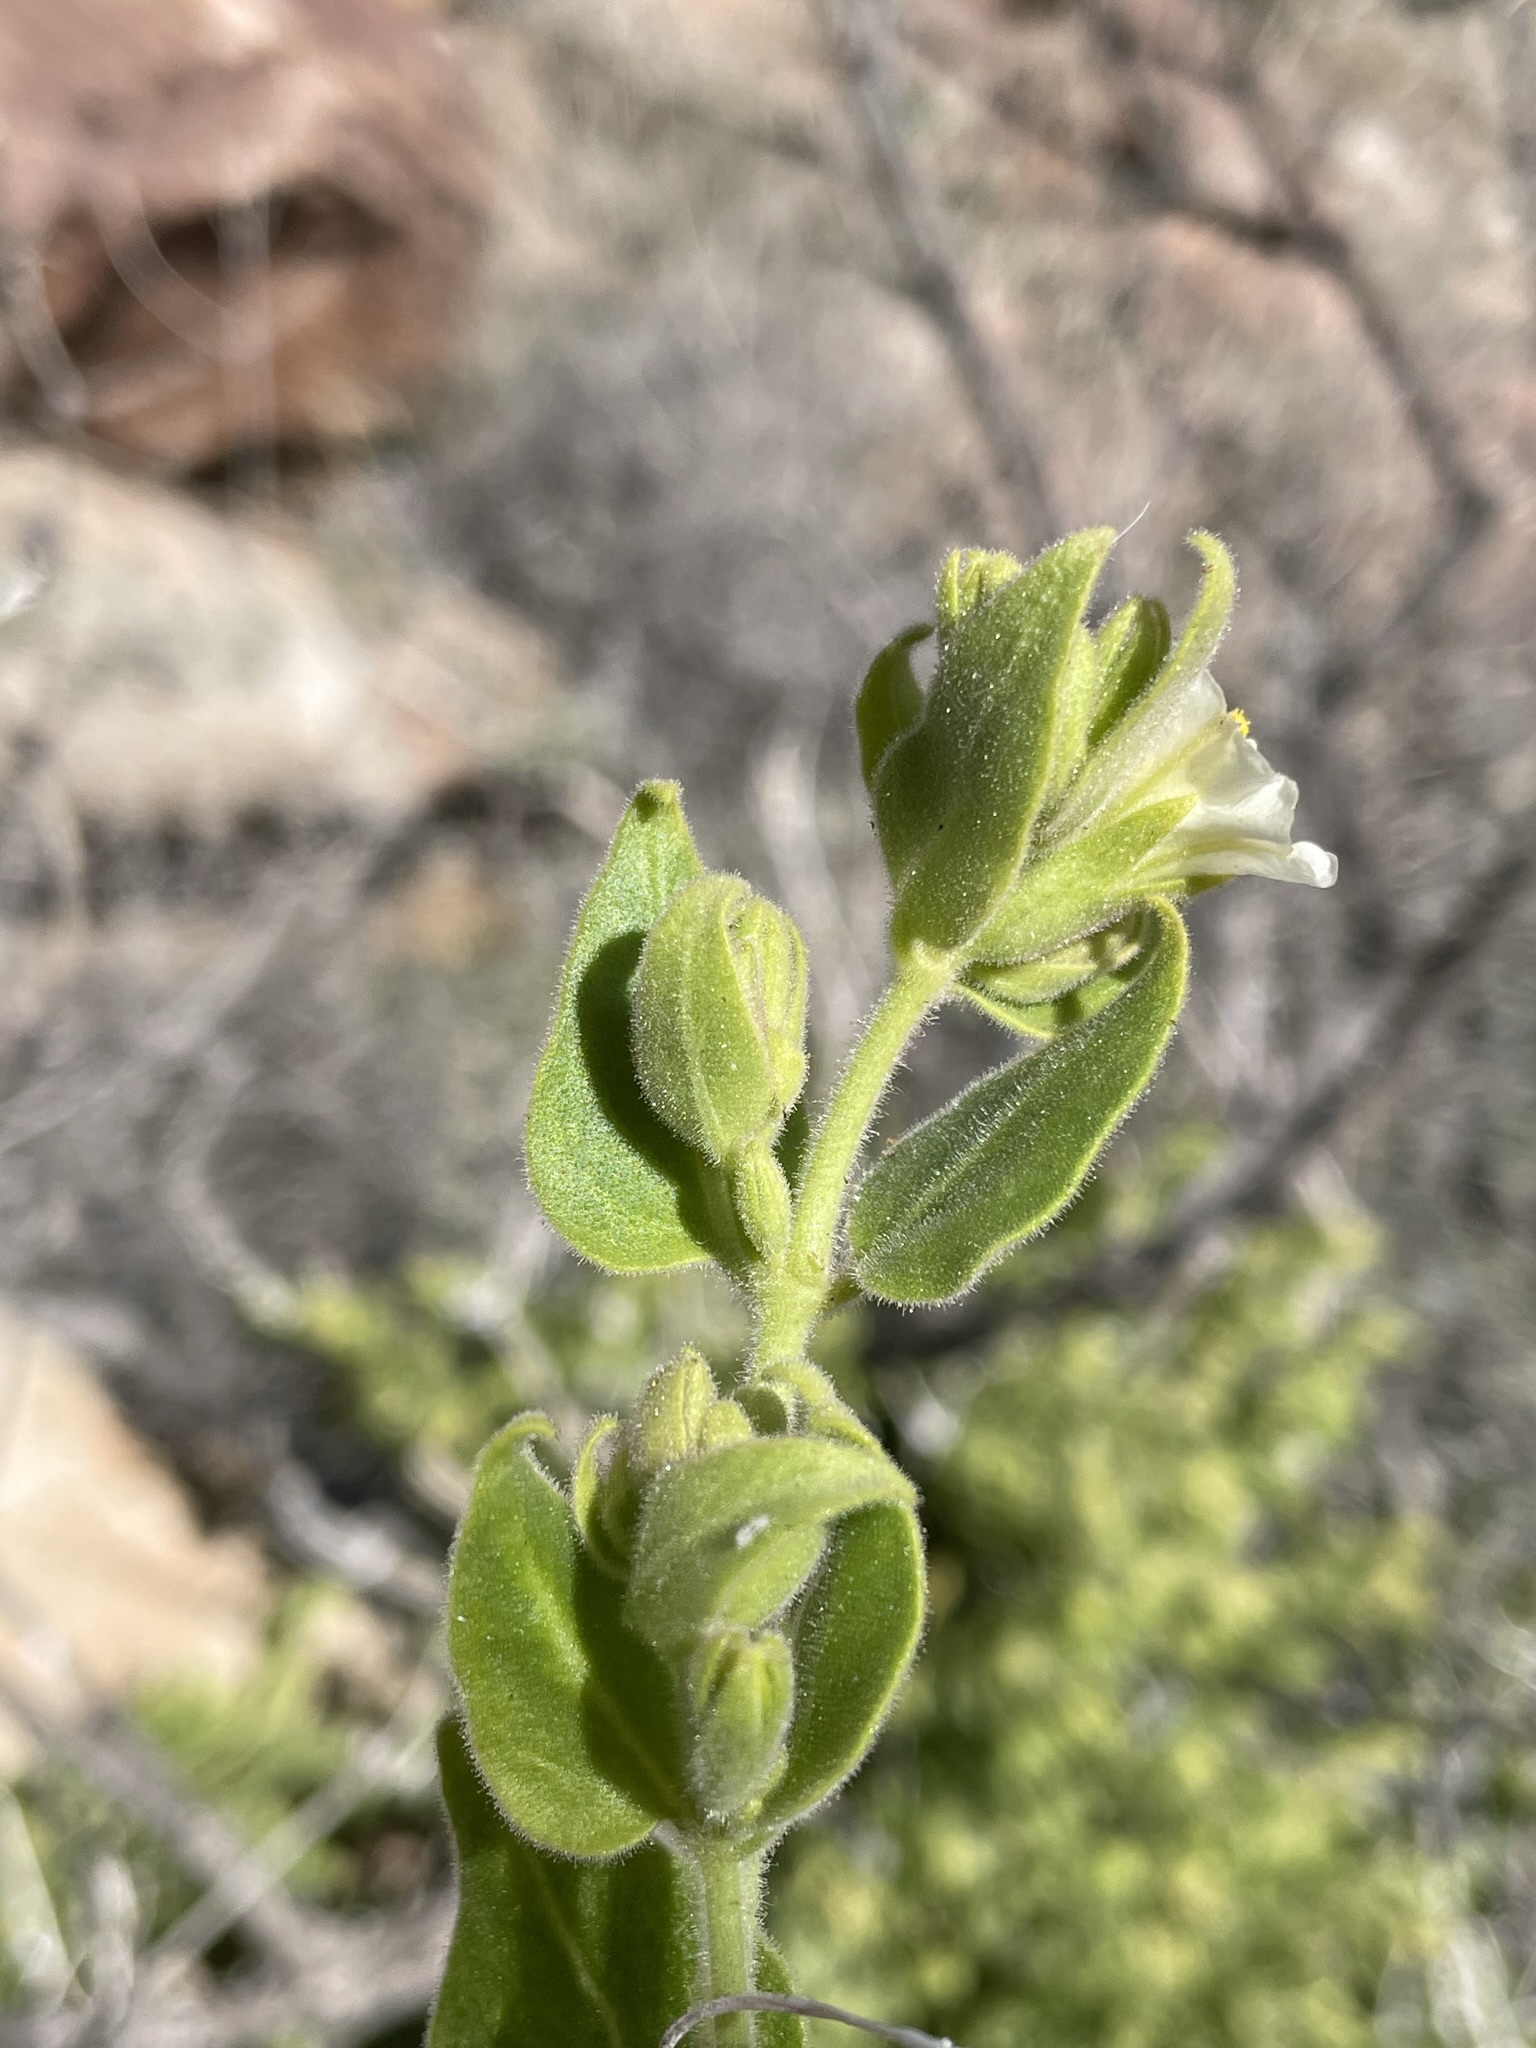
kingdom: Plantae
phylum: Tracheophyta
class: Magnoliopsida
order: Caryophyllales
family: Nyctaginaceae
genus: Mirabilis
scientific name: Mirabilis tenuiloba
